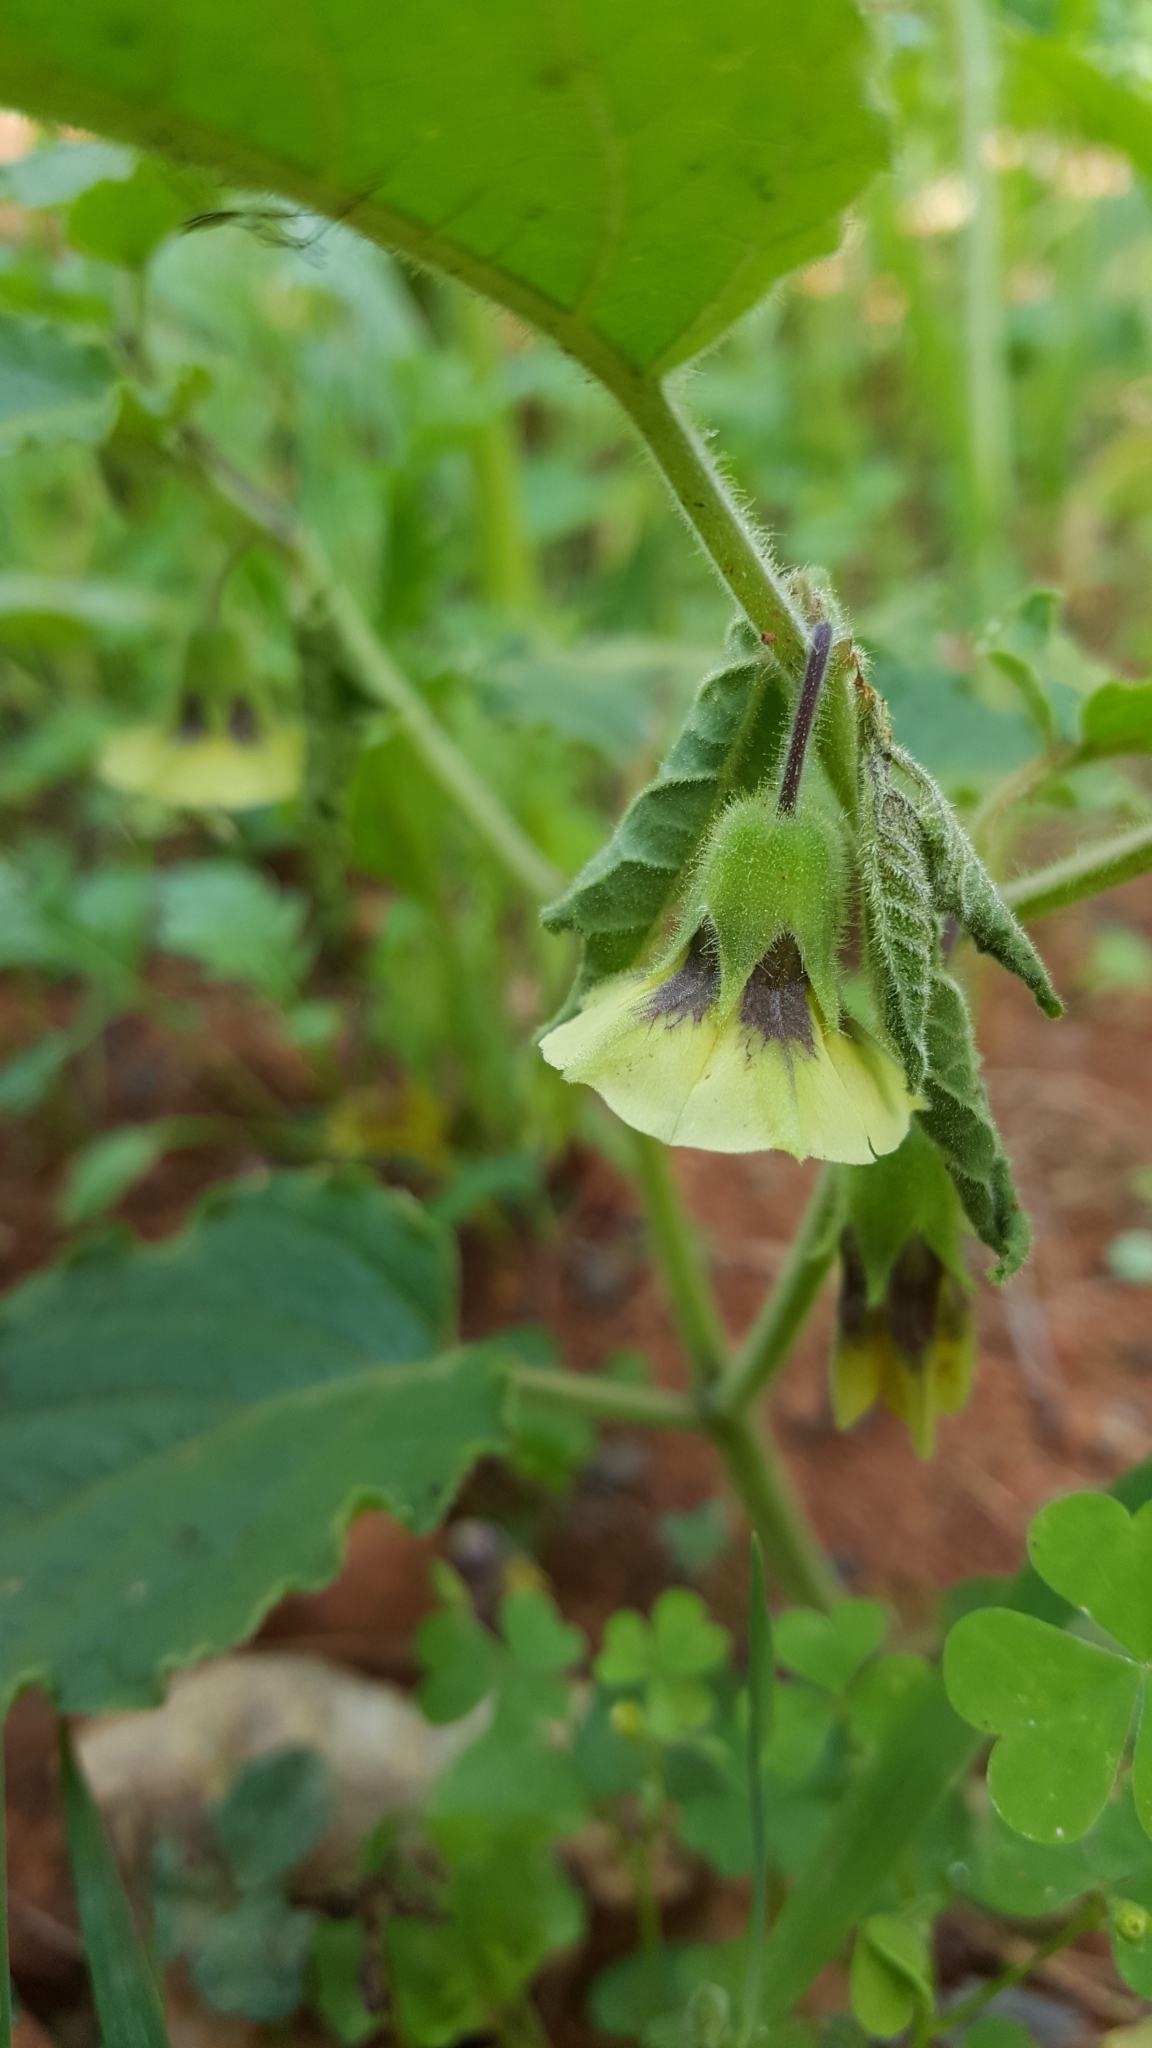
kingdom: Plantae
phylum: Tracheophyta
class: Magnoliopsida
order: Solanales
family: Solanaceae
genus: Physalis
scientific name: Physalis heterophylla
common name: Clammy ground-cherry
